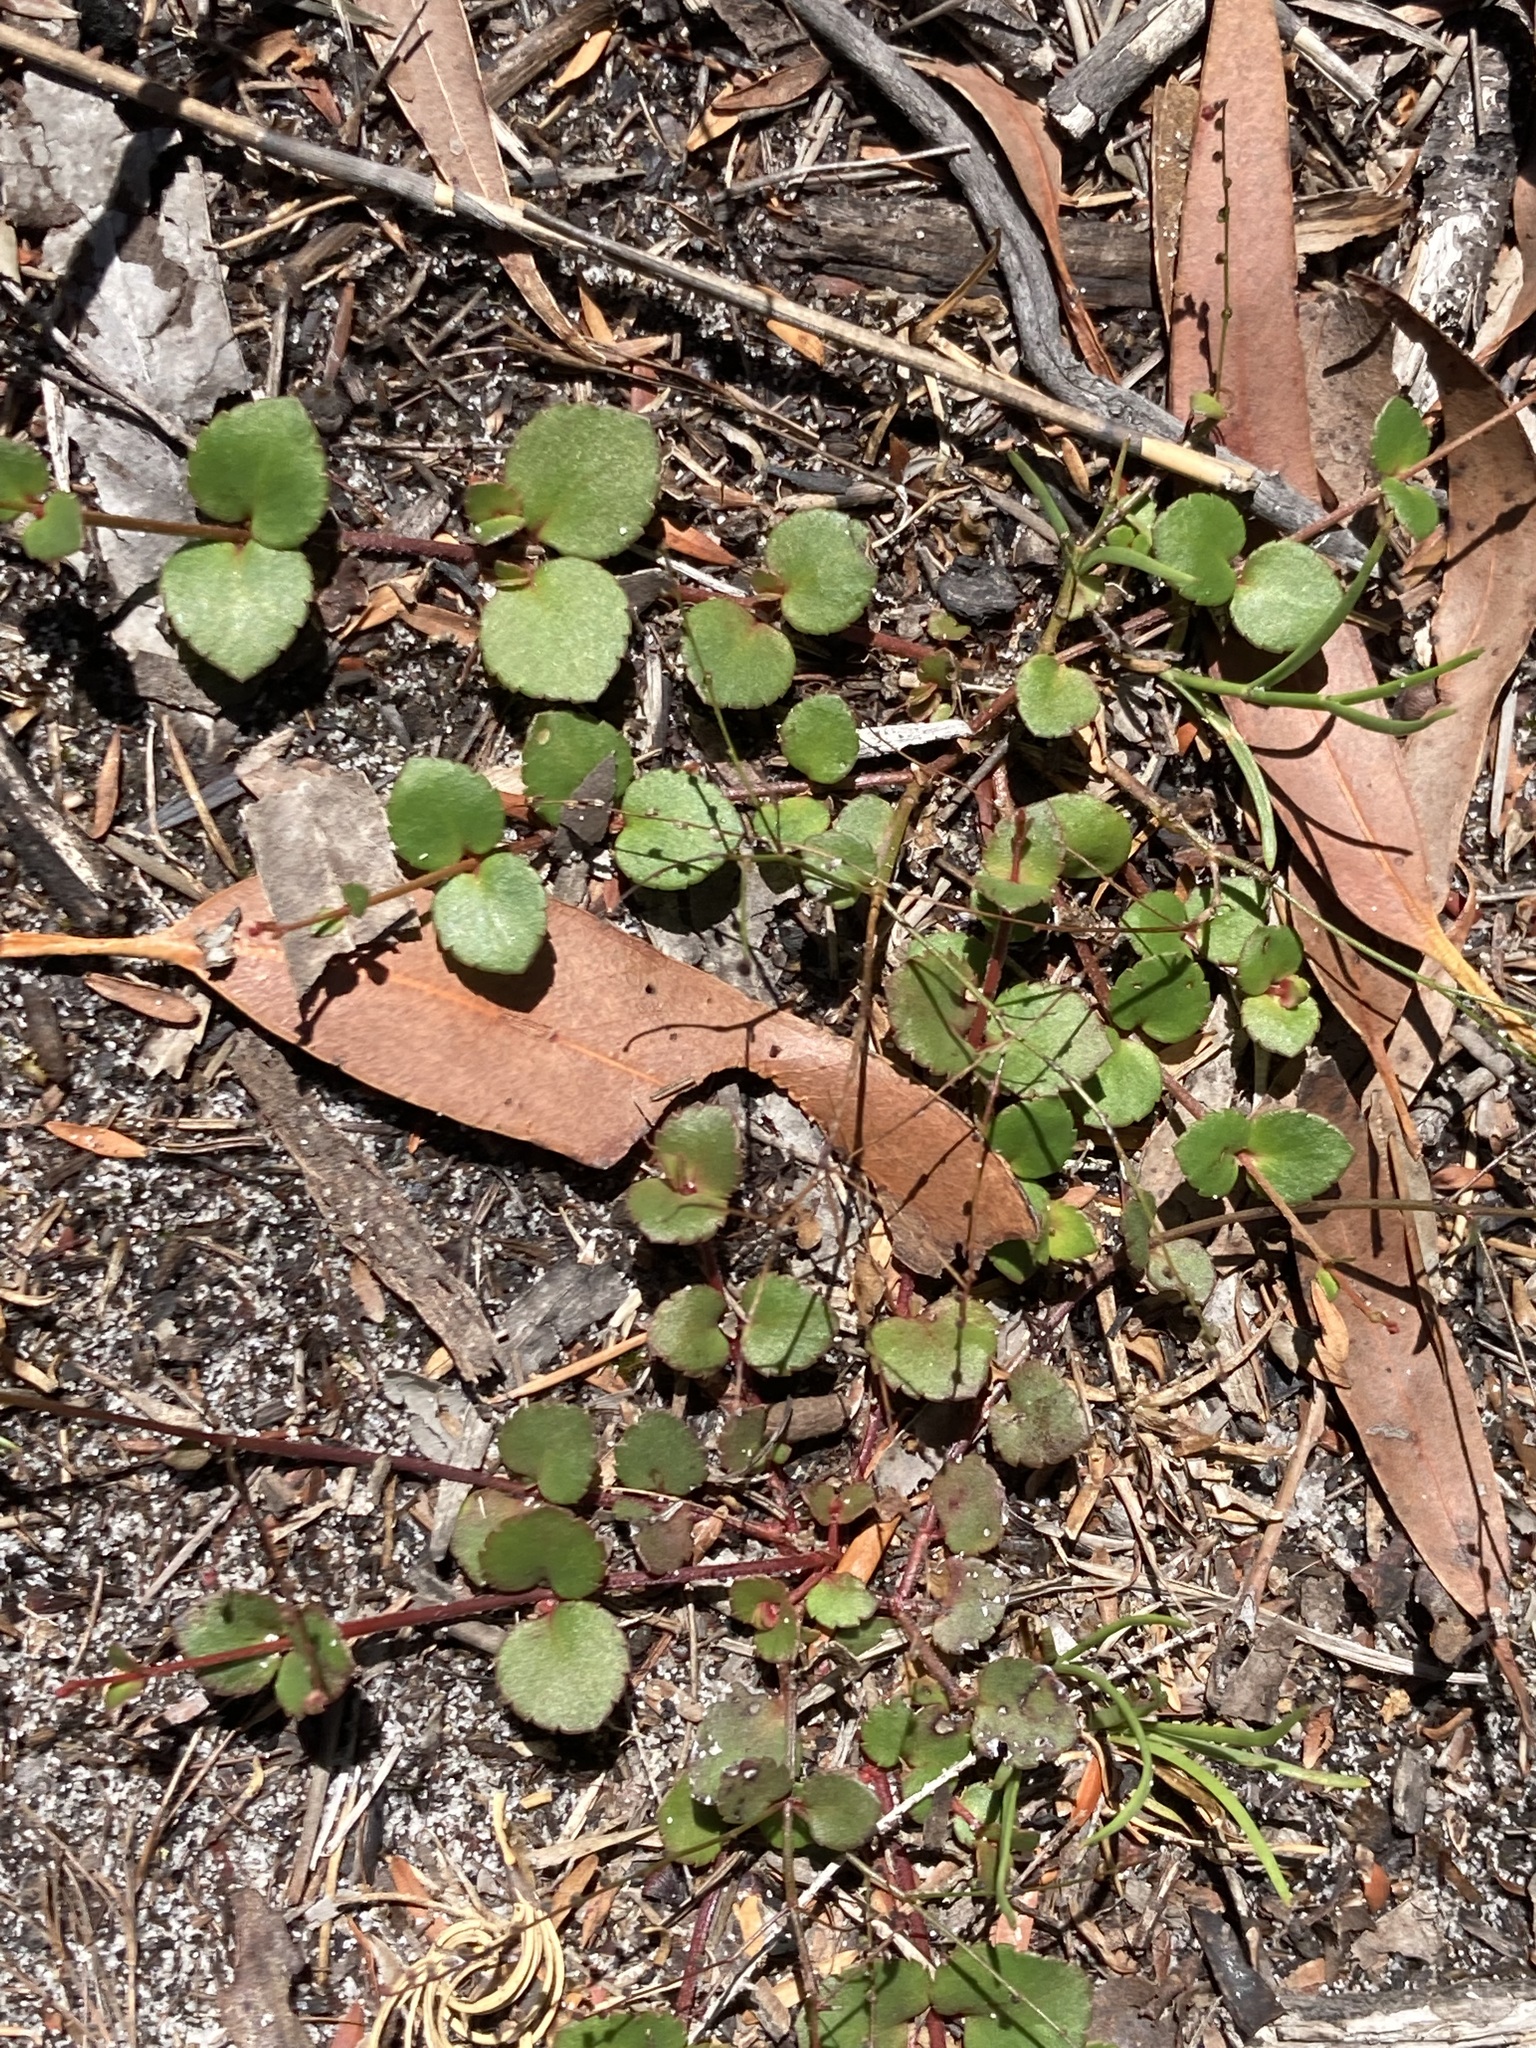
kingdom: Plantae
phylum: Tracheophyta
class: Magnoliopsida
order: Saxifragales
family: Haloragaceae
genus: Gonocarpus
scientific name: Gonocarpus micranthus
